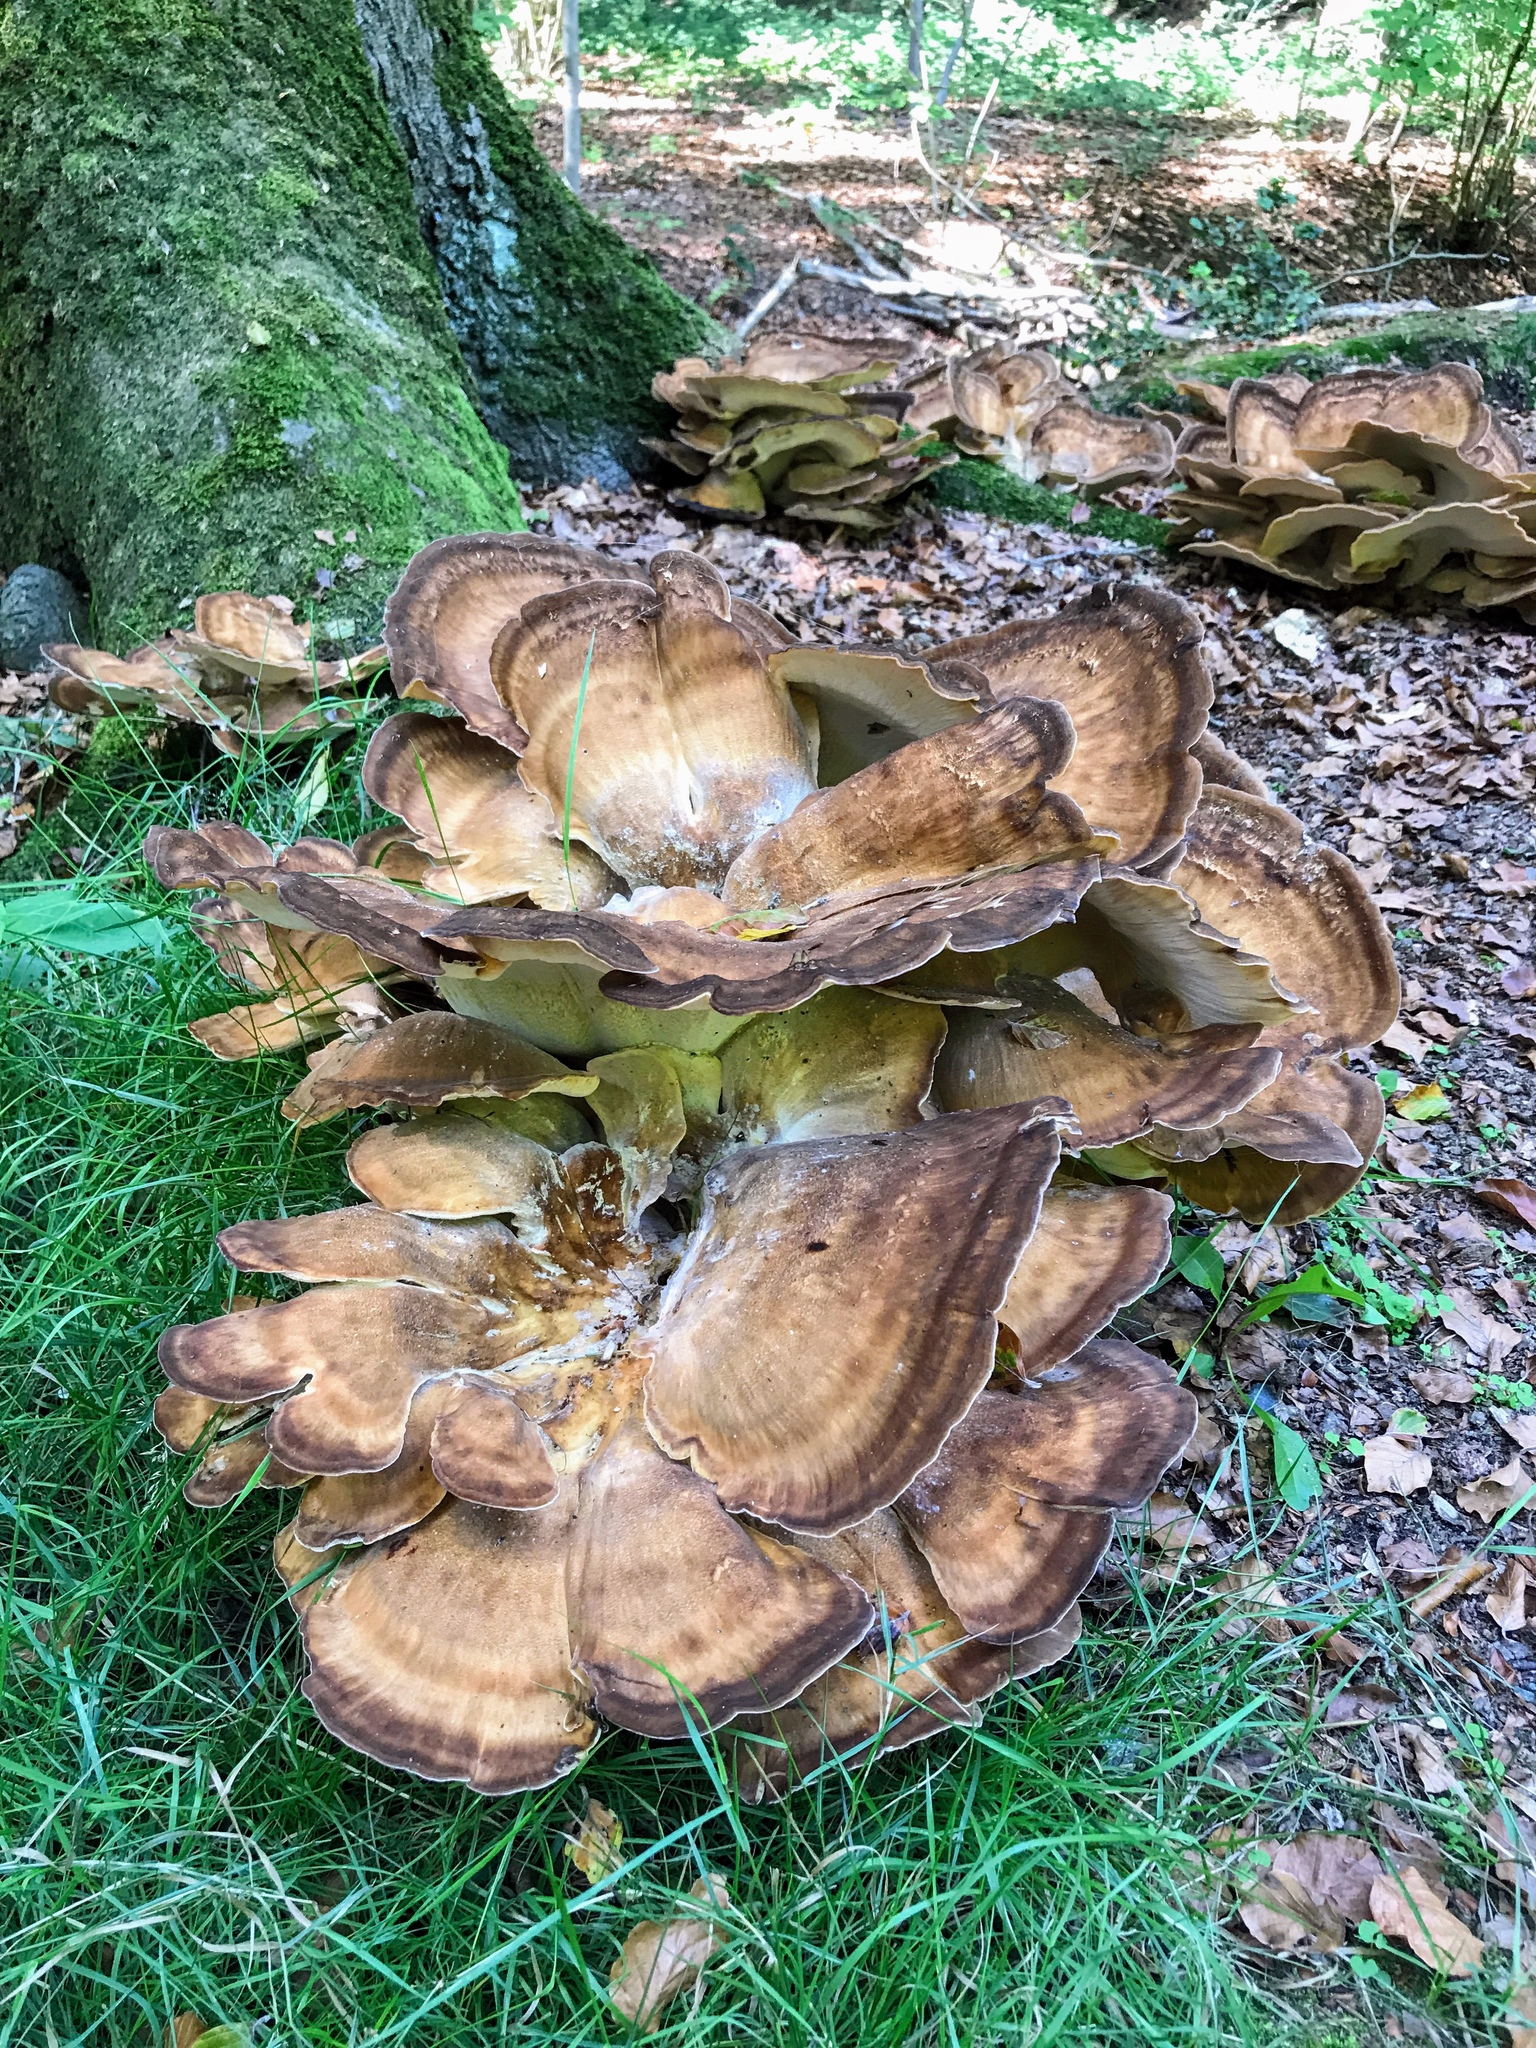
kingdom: Fungi
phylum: Basidiomycota
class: Agaricomycetes
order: Polyporales
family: Meripilaceae
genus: Meripilus
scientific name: Meripilus giganteus
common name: Giant polypore
